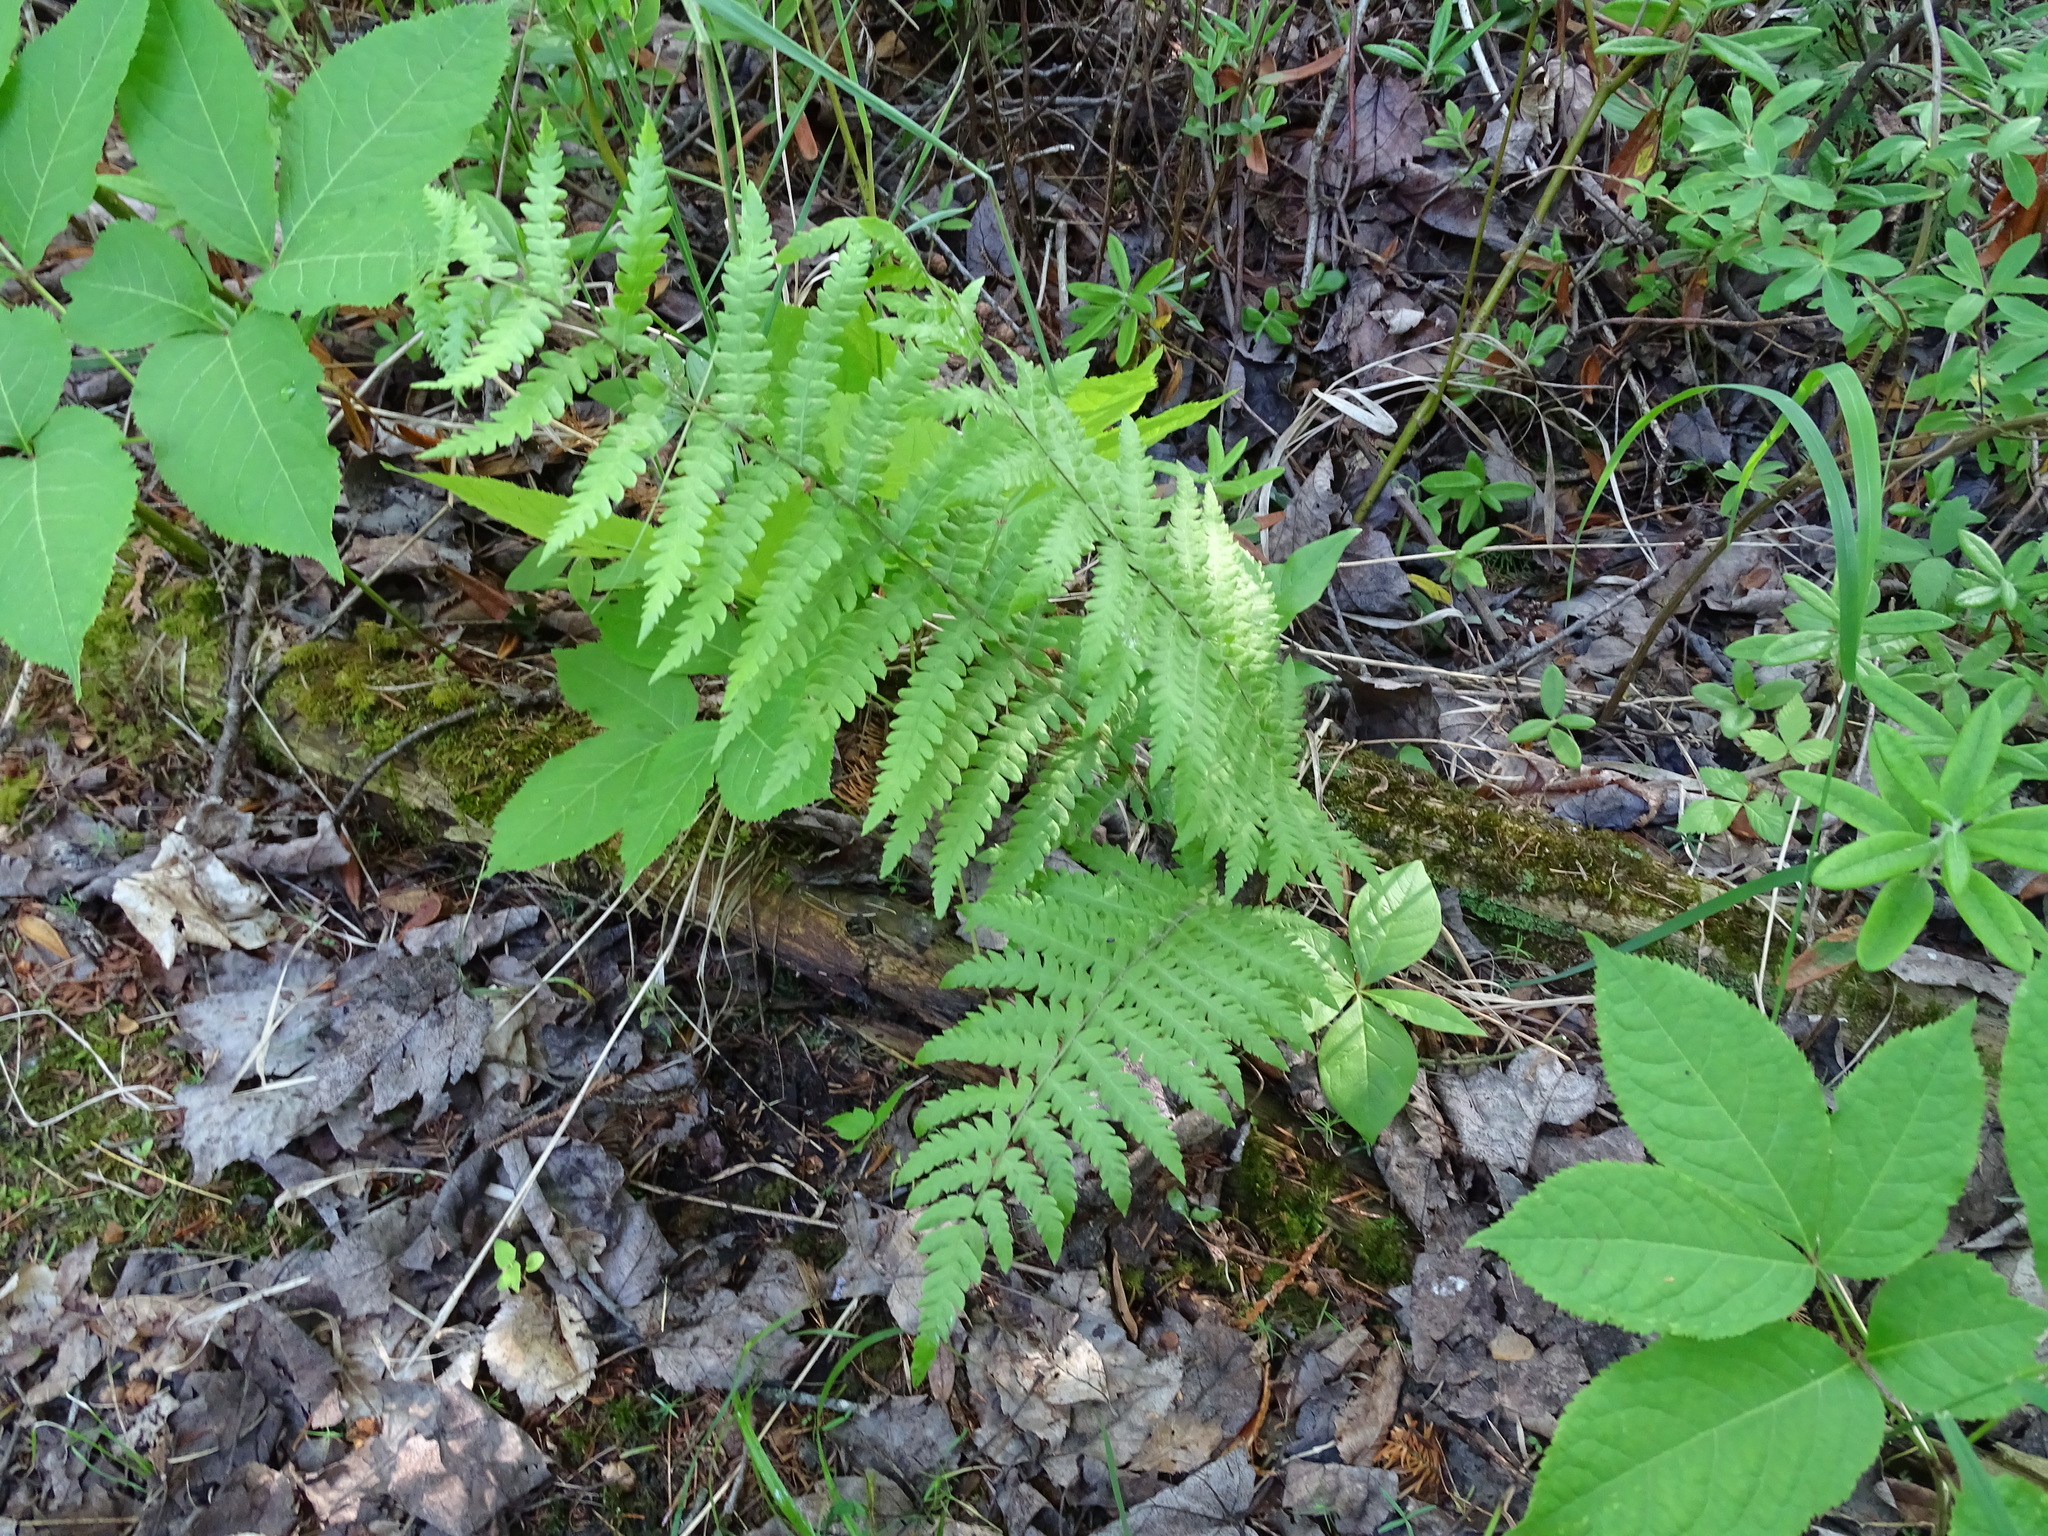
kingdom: Plantae
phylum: Tracheophyta
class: Polypodiopsida
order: Polypodiales
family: Thelypteridaceae
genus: Thelypteris
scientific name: Thelypteris palustris
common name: Marsh fern
